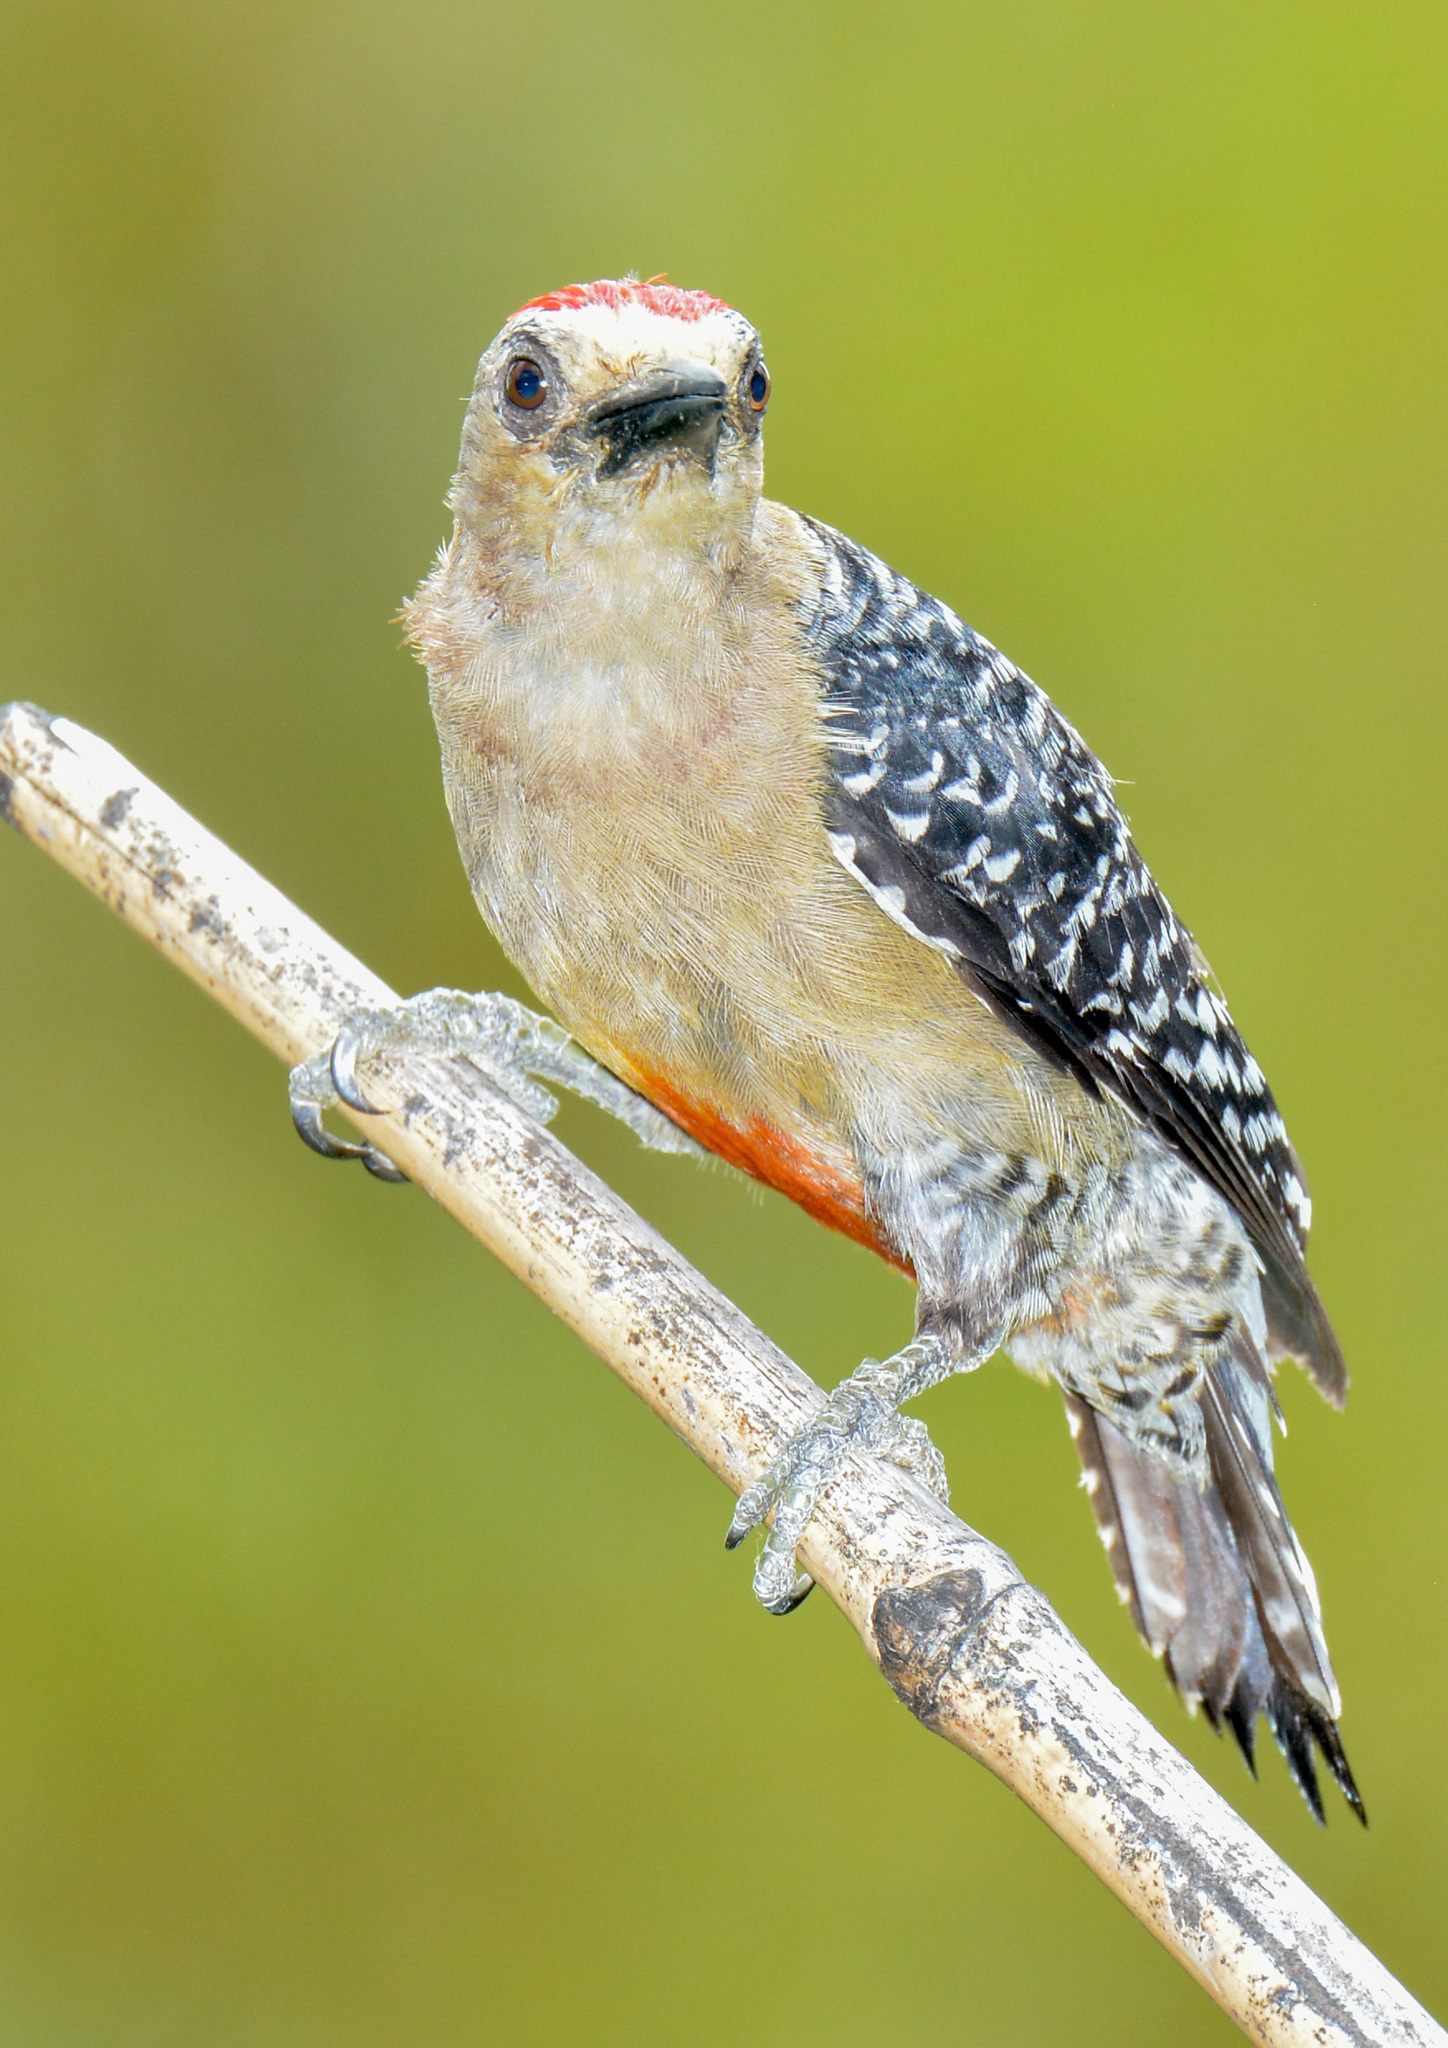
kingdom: Animalia
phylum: Chordata
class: Aves
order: Piciformes
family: Picidae
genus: Melanerpes
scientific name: Melanerpes rubricapillus
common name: Red-crowned woodpecker
